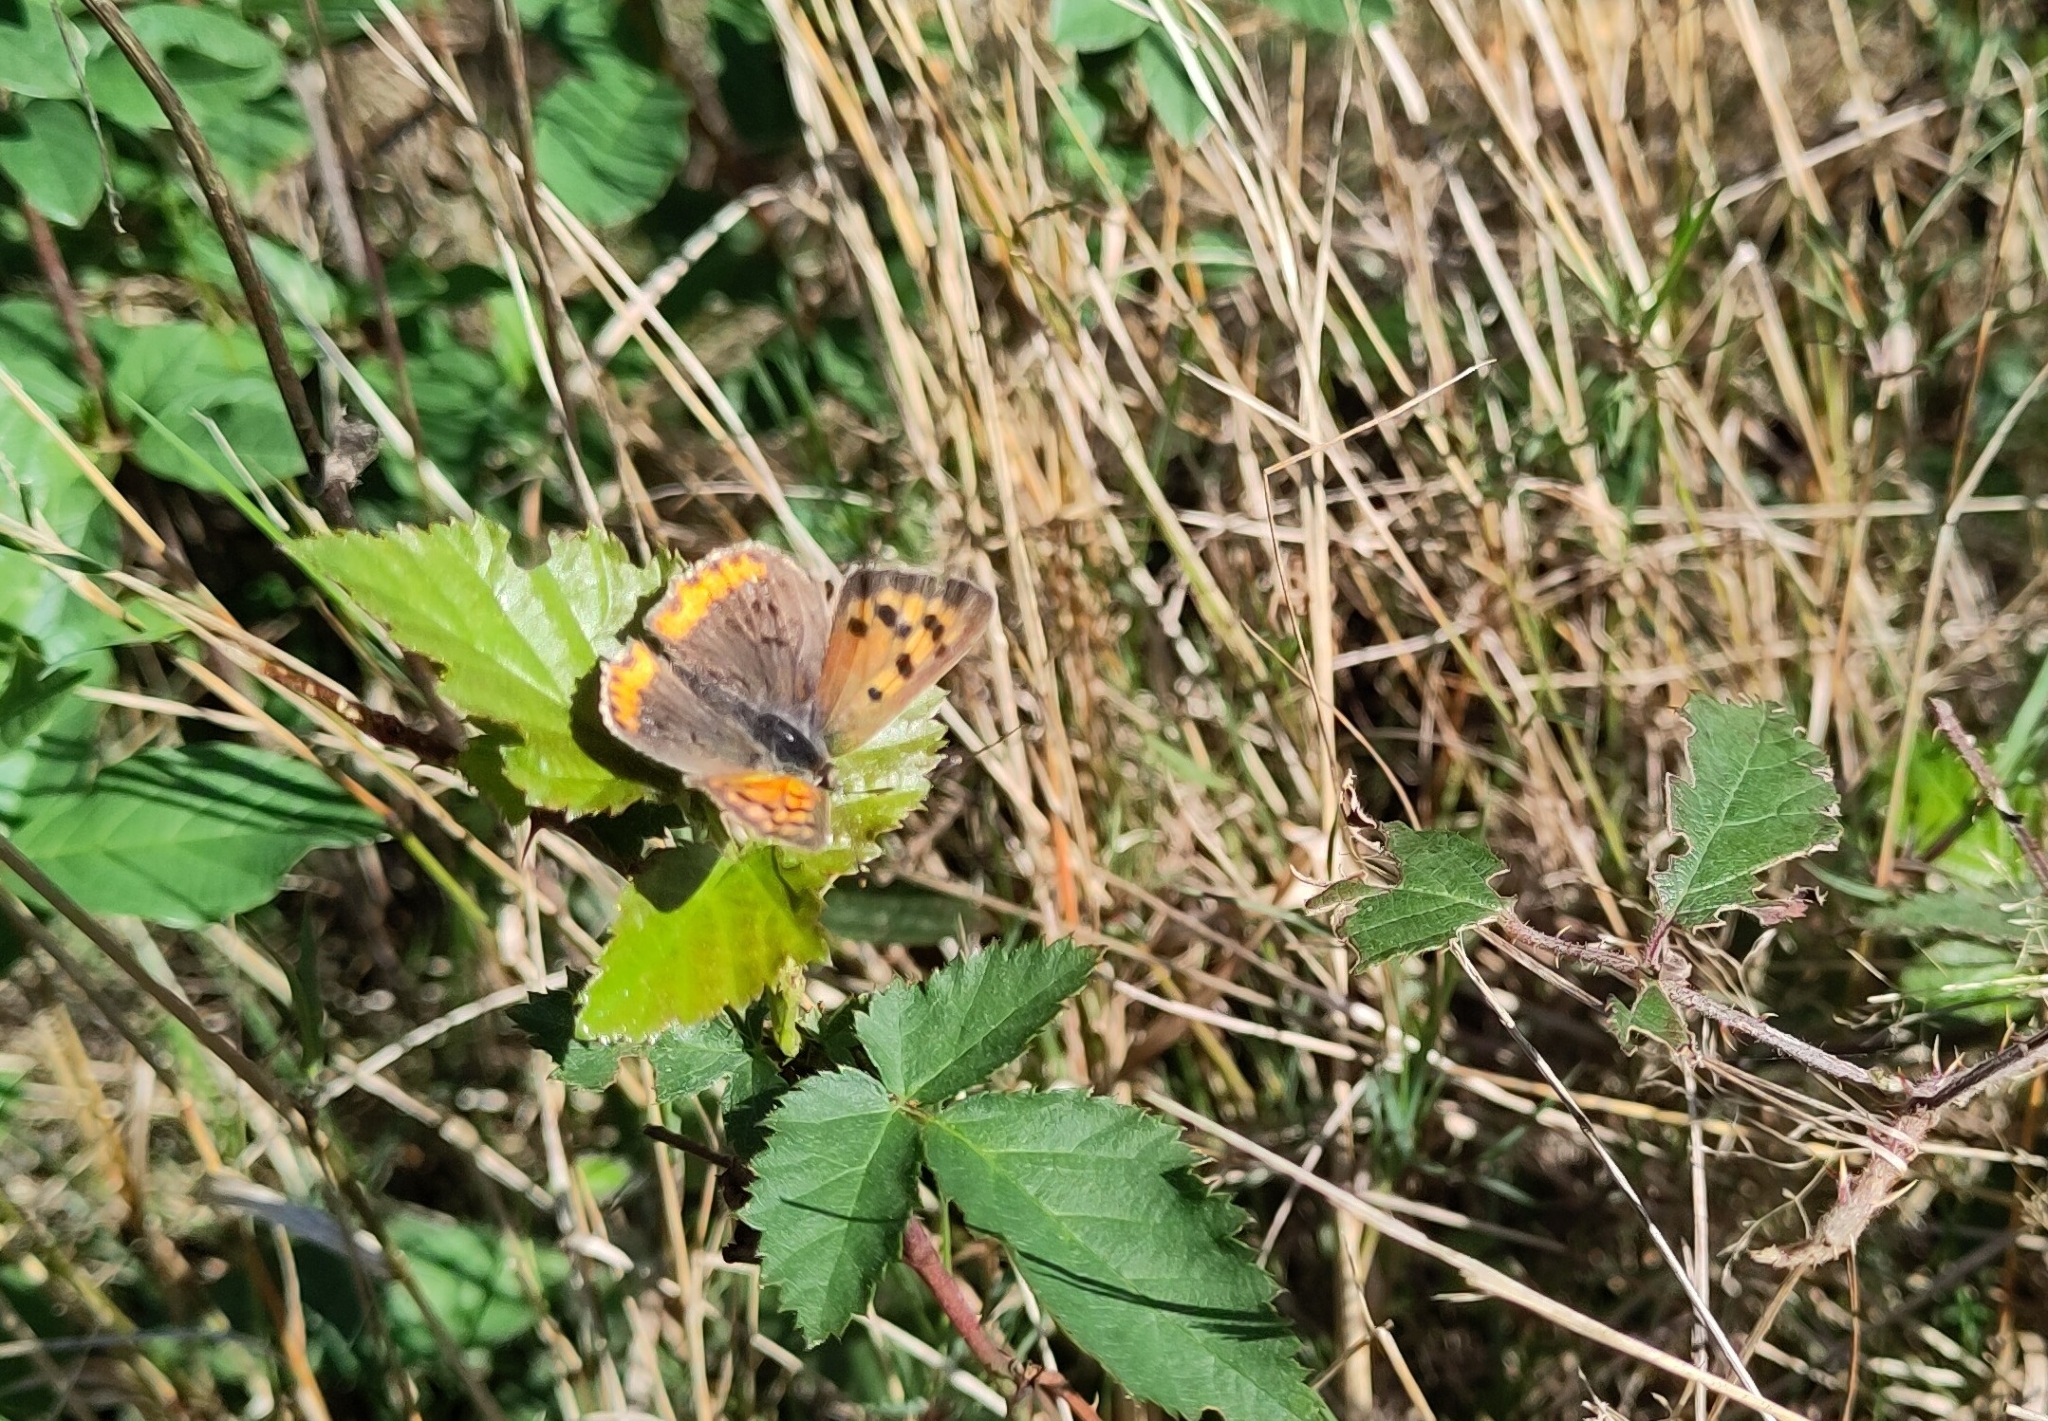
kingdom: Animalia
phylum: Arthropoda
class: Insecta
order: Lepidoptera
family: Lycaenidae
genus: Lycaena
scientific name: Lycaena phlaeas
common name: Small copper
